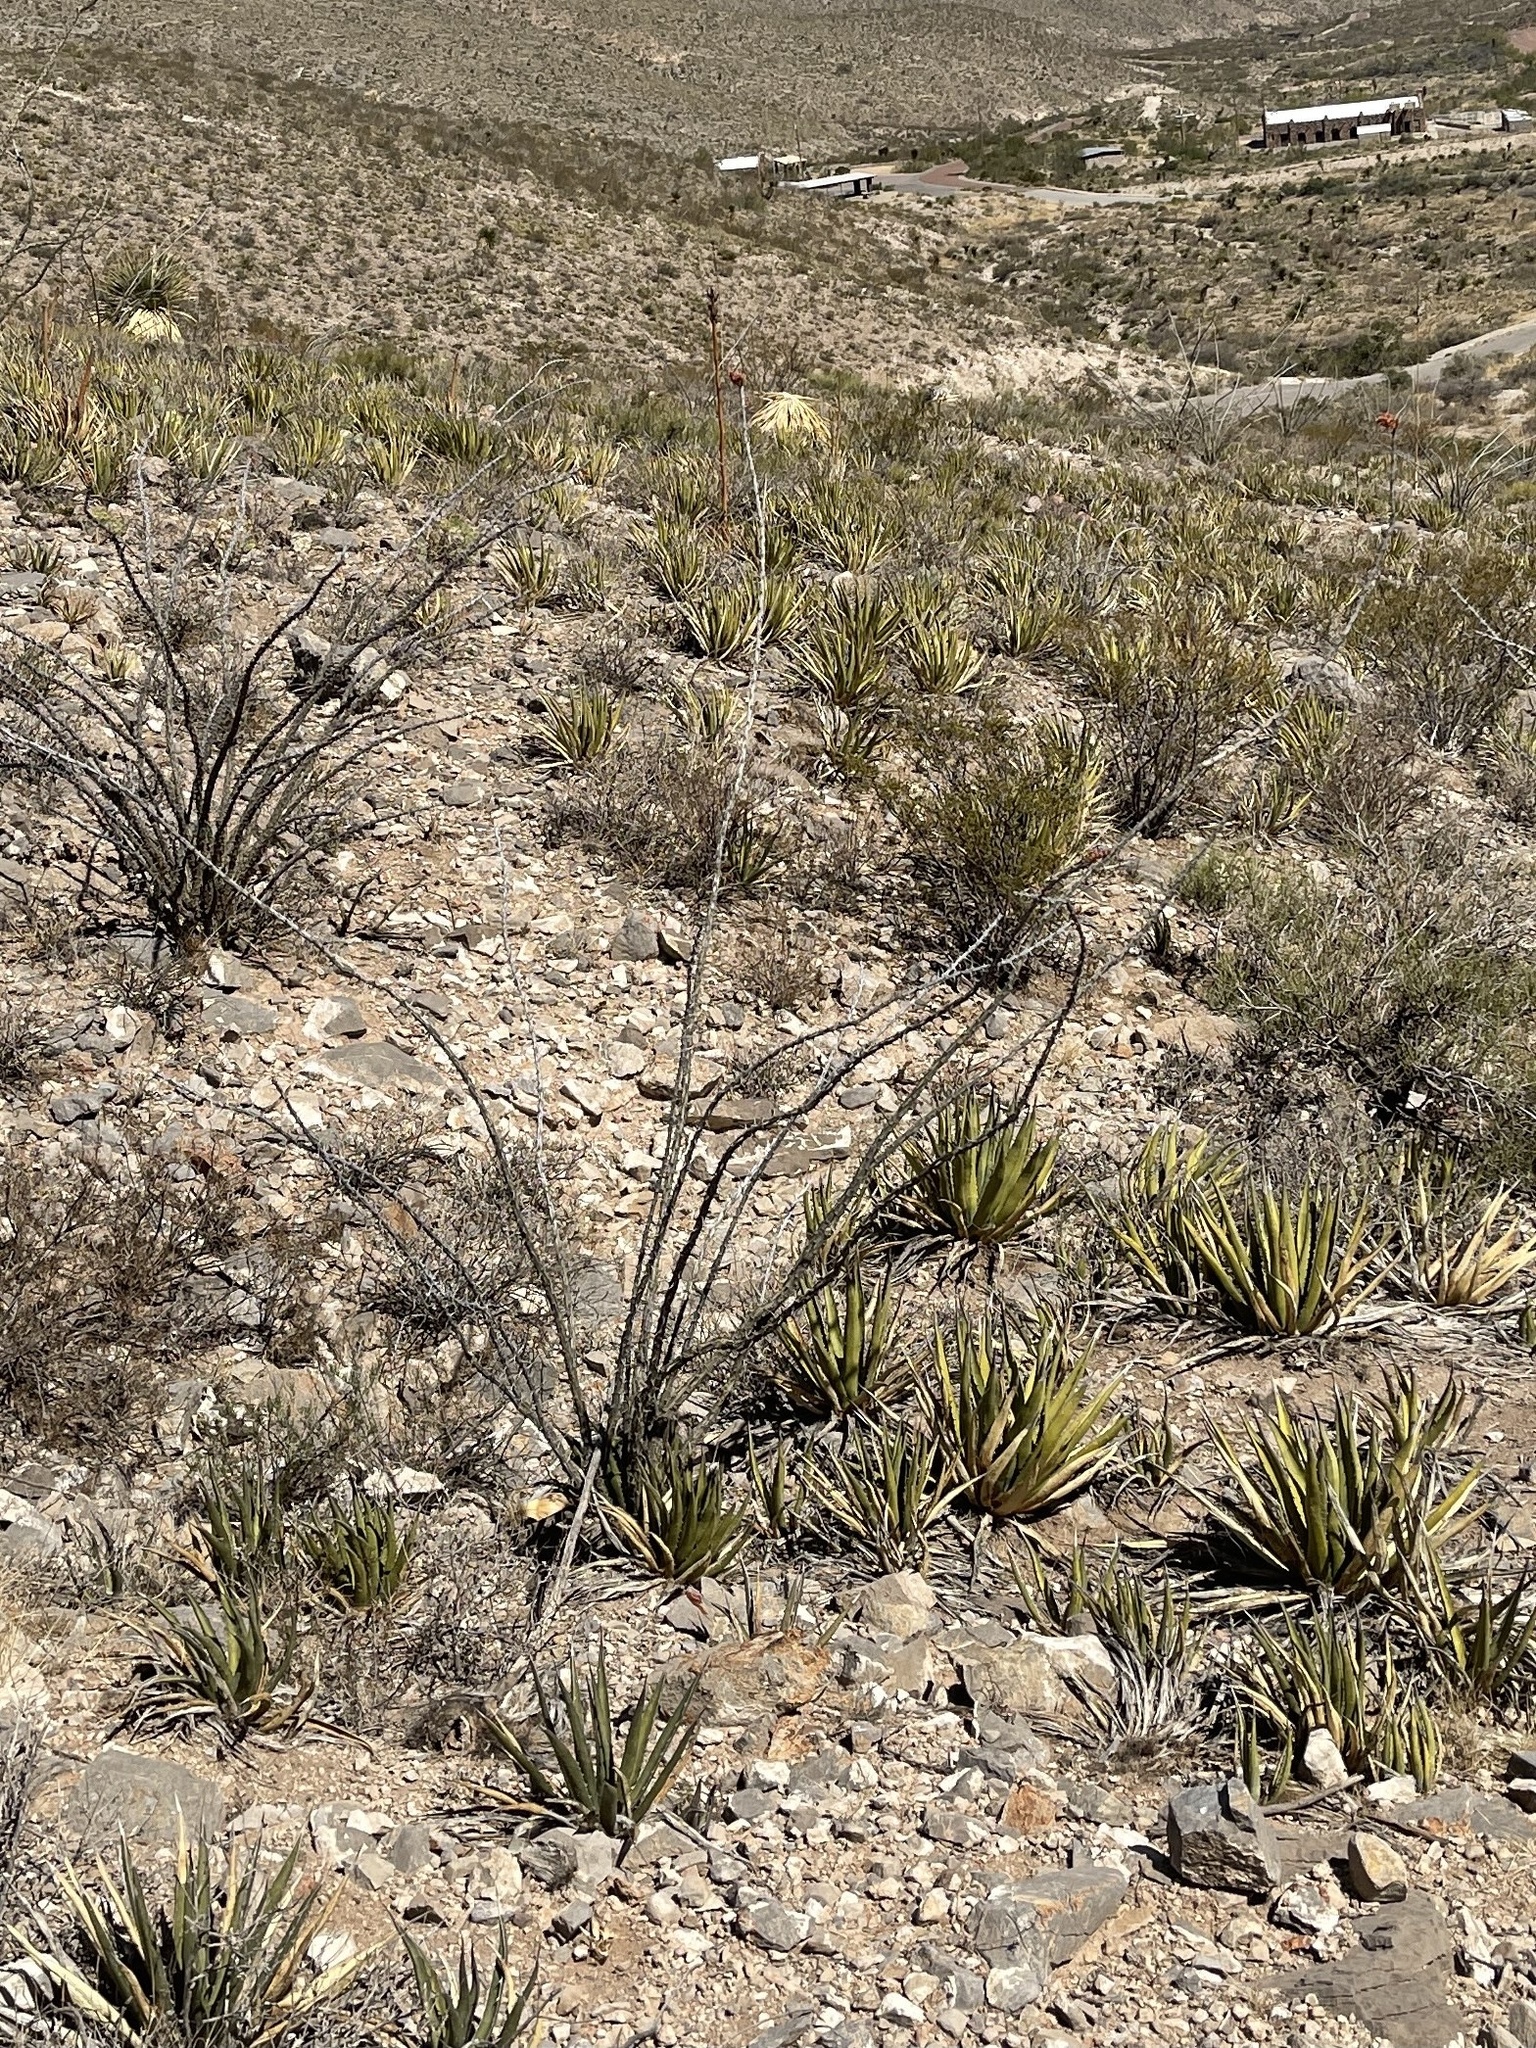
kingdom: Plantae
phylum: Tracheophyta
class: Magnoliopsida
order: Ericales
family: Fouquieriaceae
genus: Fouquieria
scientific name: Fouquieria splendens
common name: Vine-cactus
